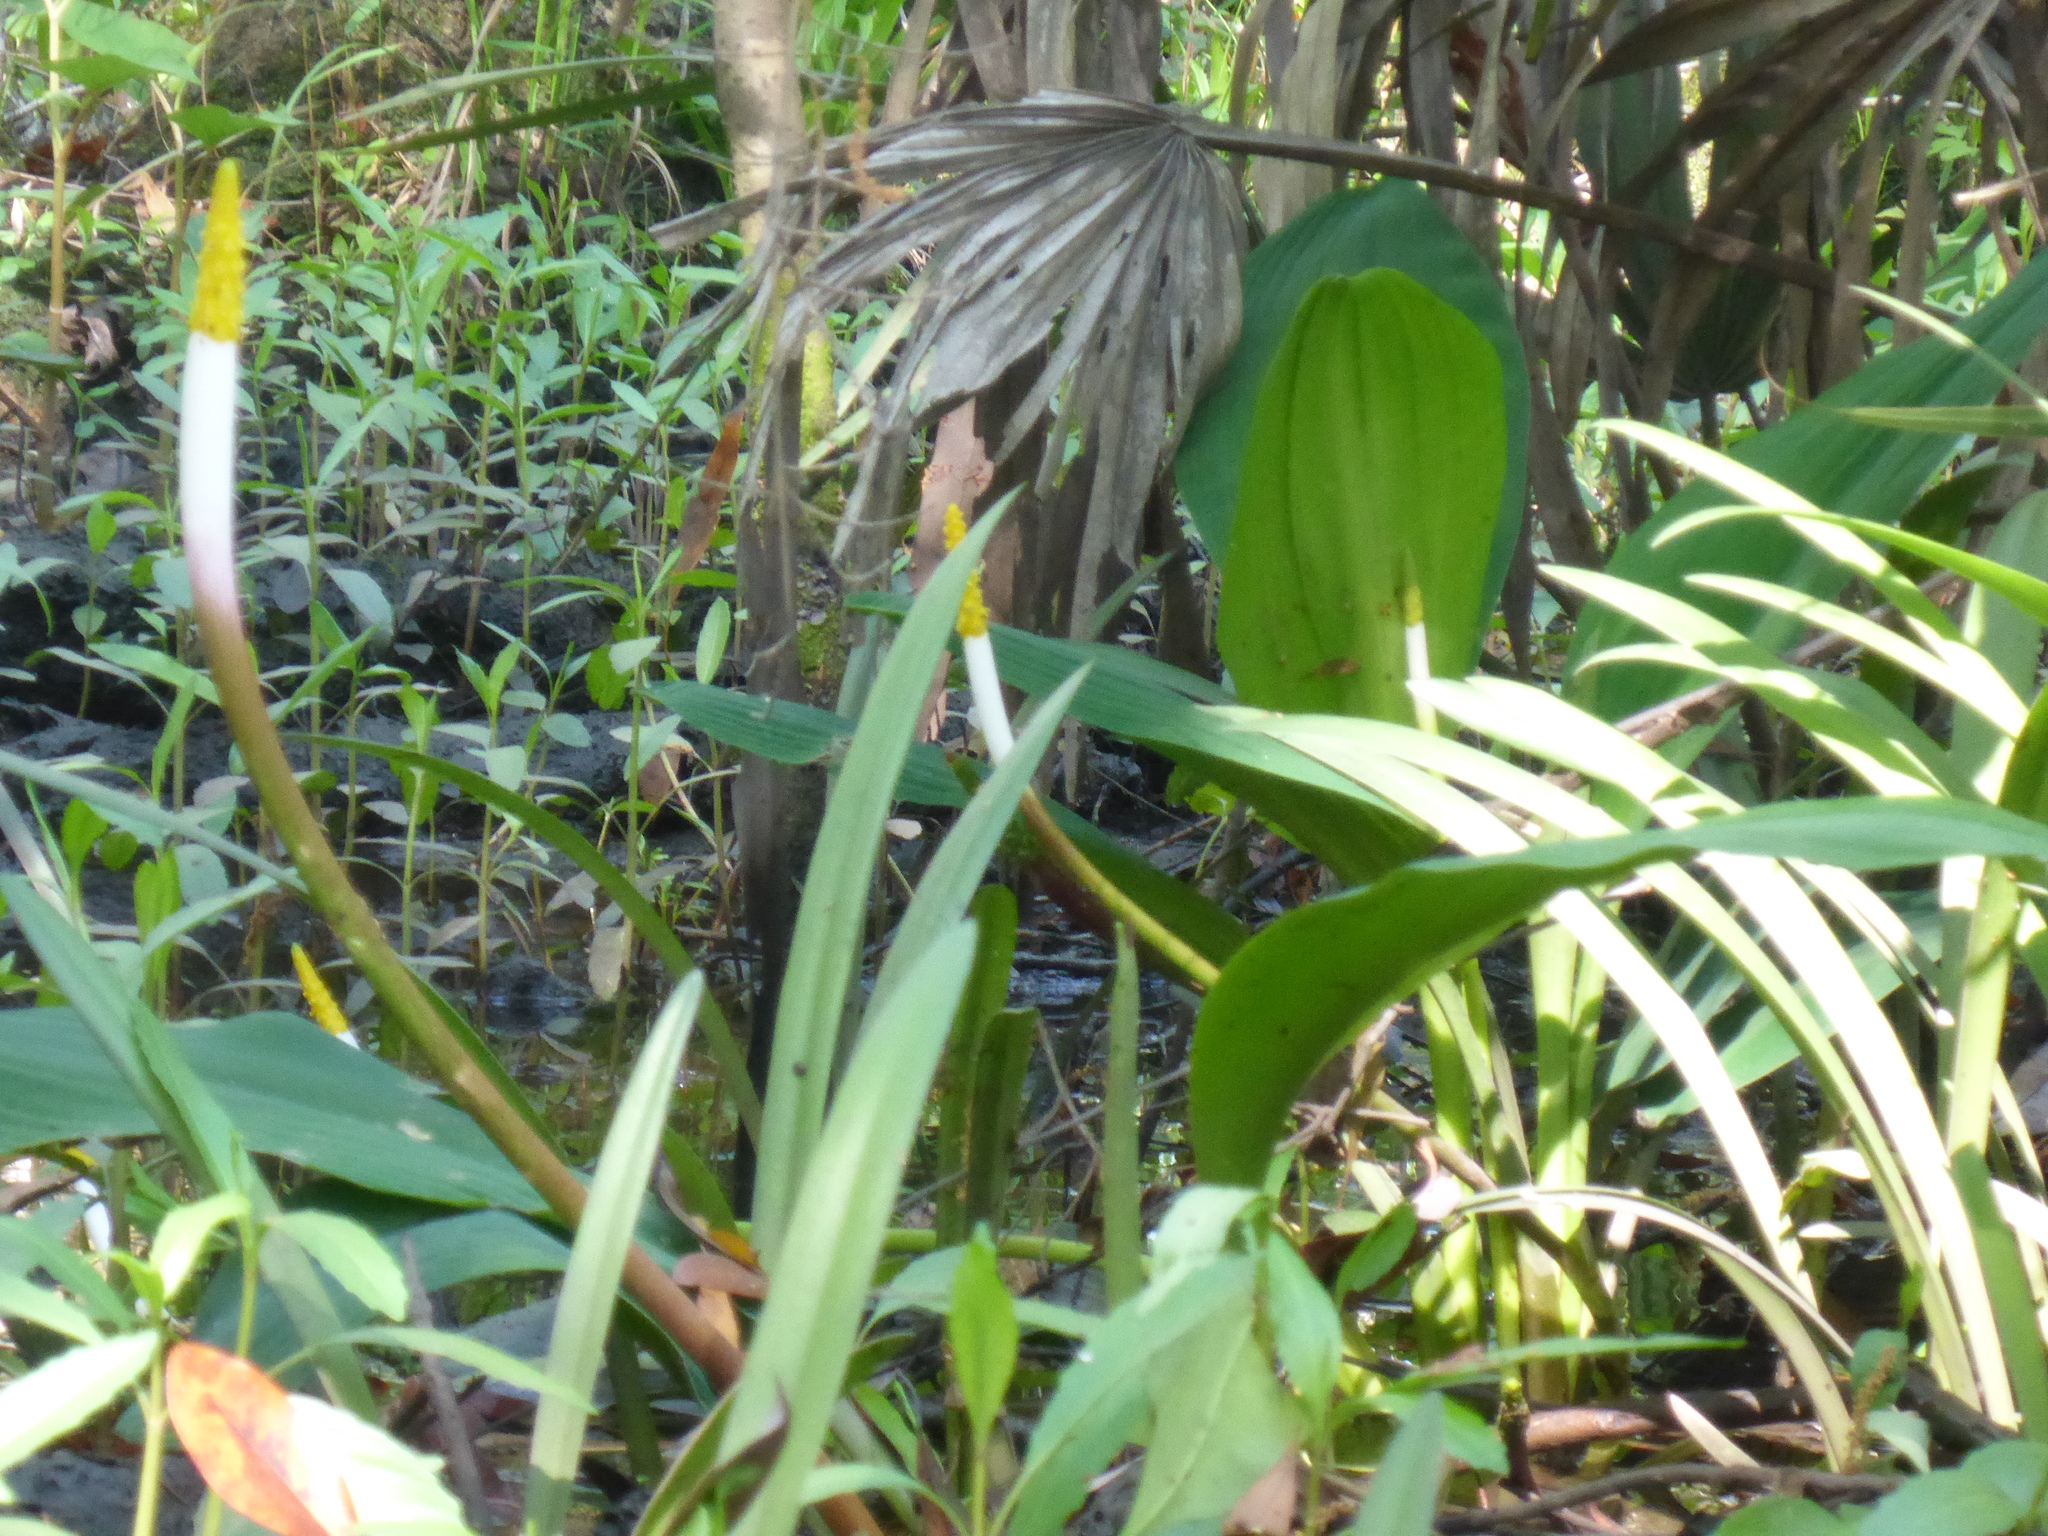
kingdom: Plantae
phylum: Tracheophyta
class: Liliopsida
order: Alismatales
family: Araceae
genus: Orontium
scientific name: Orontium aquaticum
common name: Golden-club
